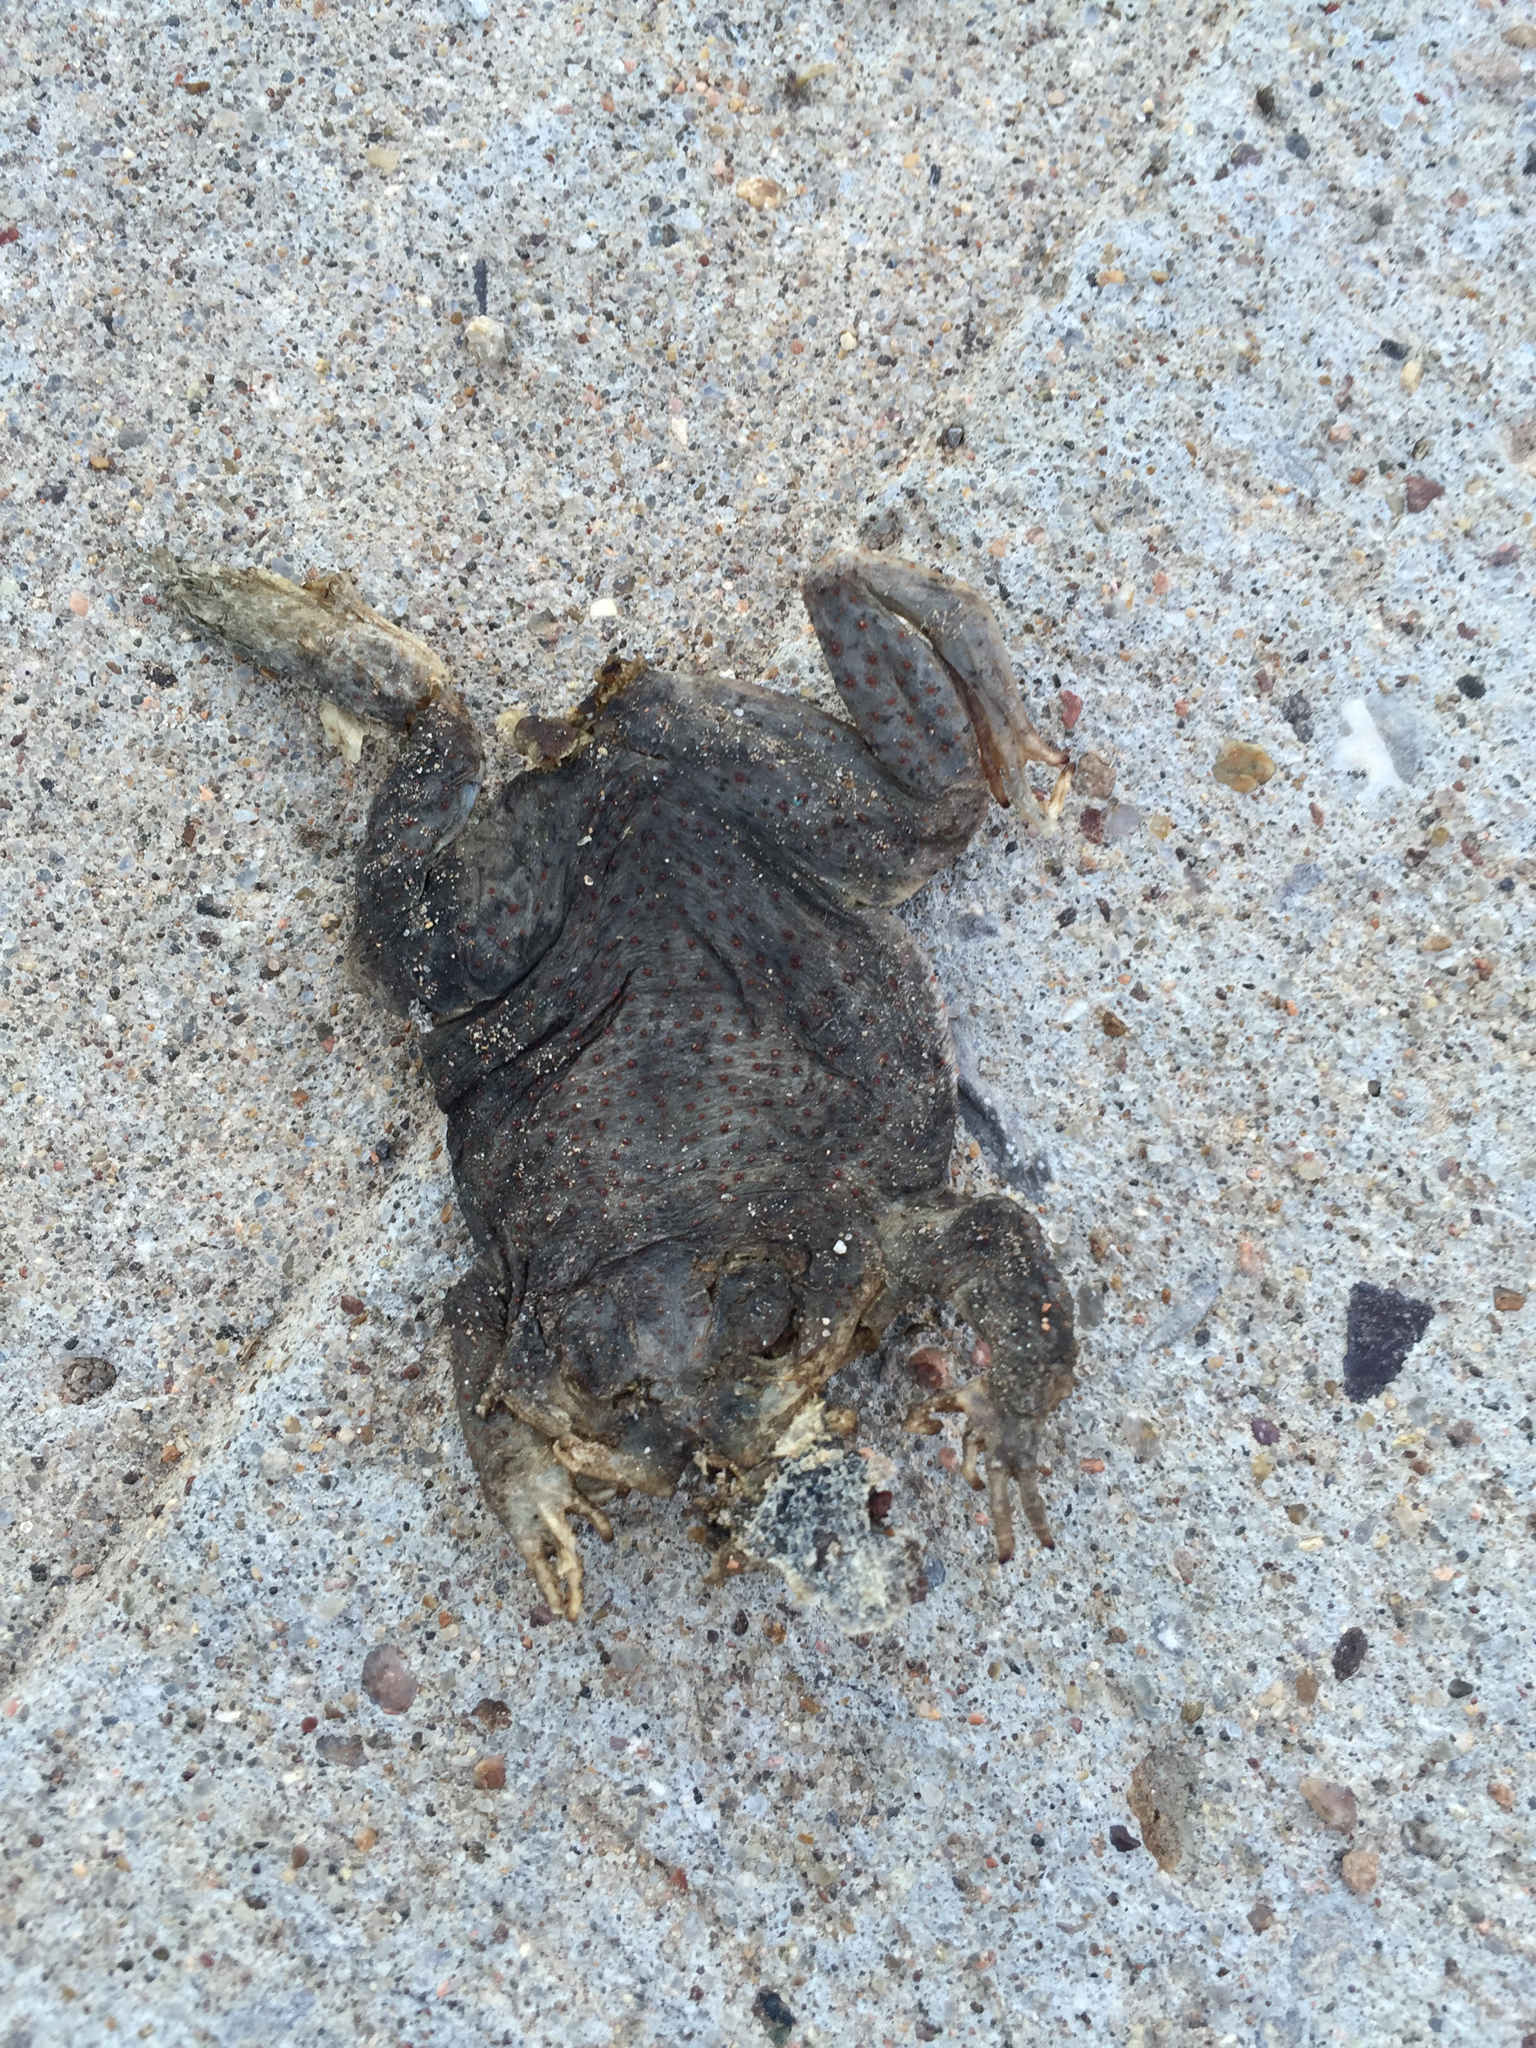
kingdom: Animalia
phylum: Chordata
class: Amphibia
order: Anura
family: Bufonidae
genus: Anaxyrus
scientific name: Anaxyrus punctatus
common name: Red-spotted toad
